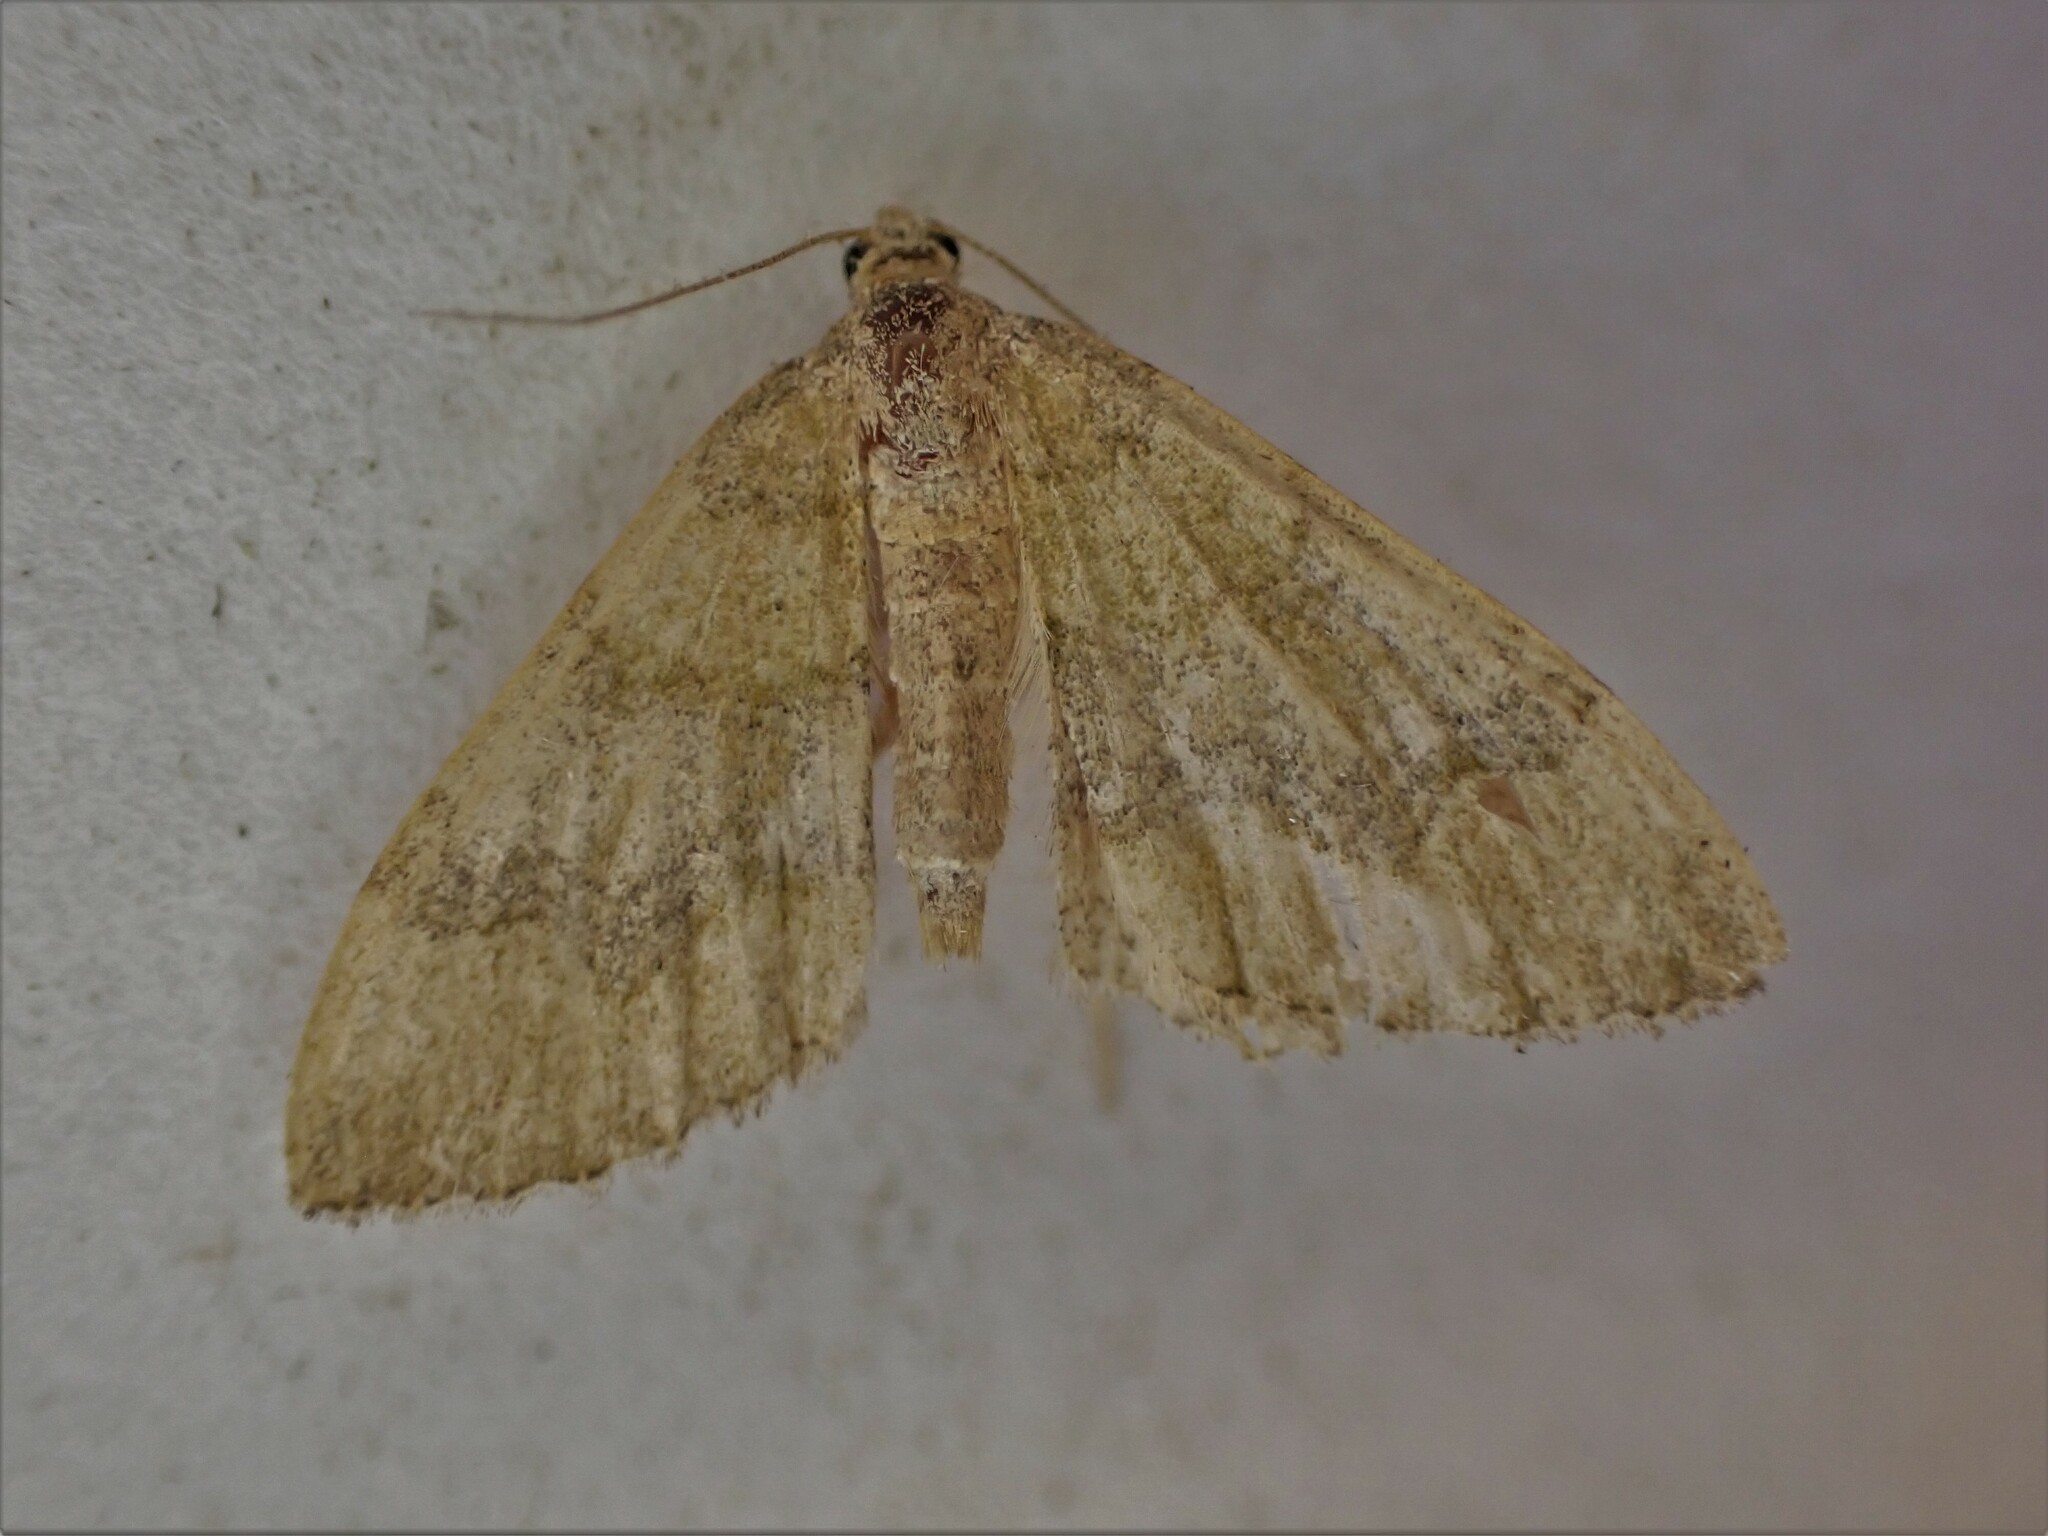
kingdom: Animalia
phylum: Arthropoda
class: Insecta
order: Lepidoptera
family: Geometridae
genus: Epyaxa
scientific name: Epyaxa rosearia
